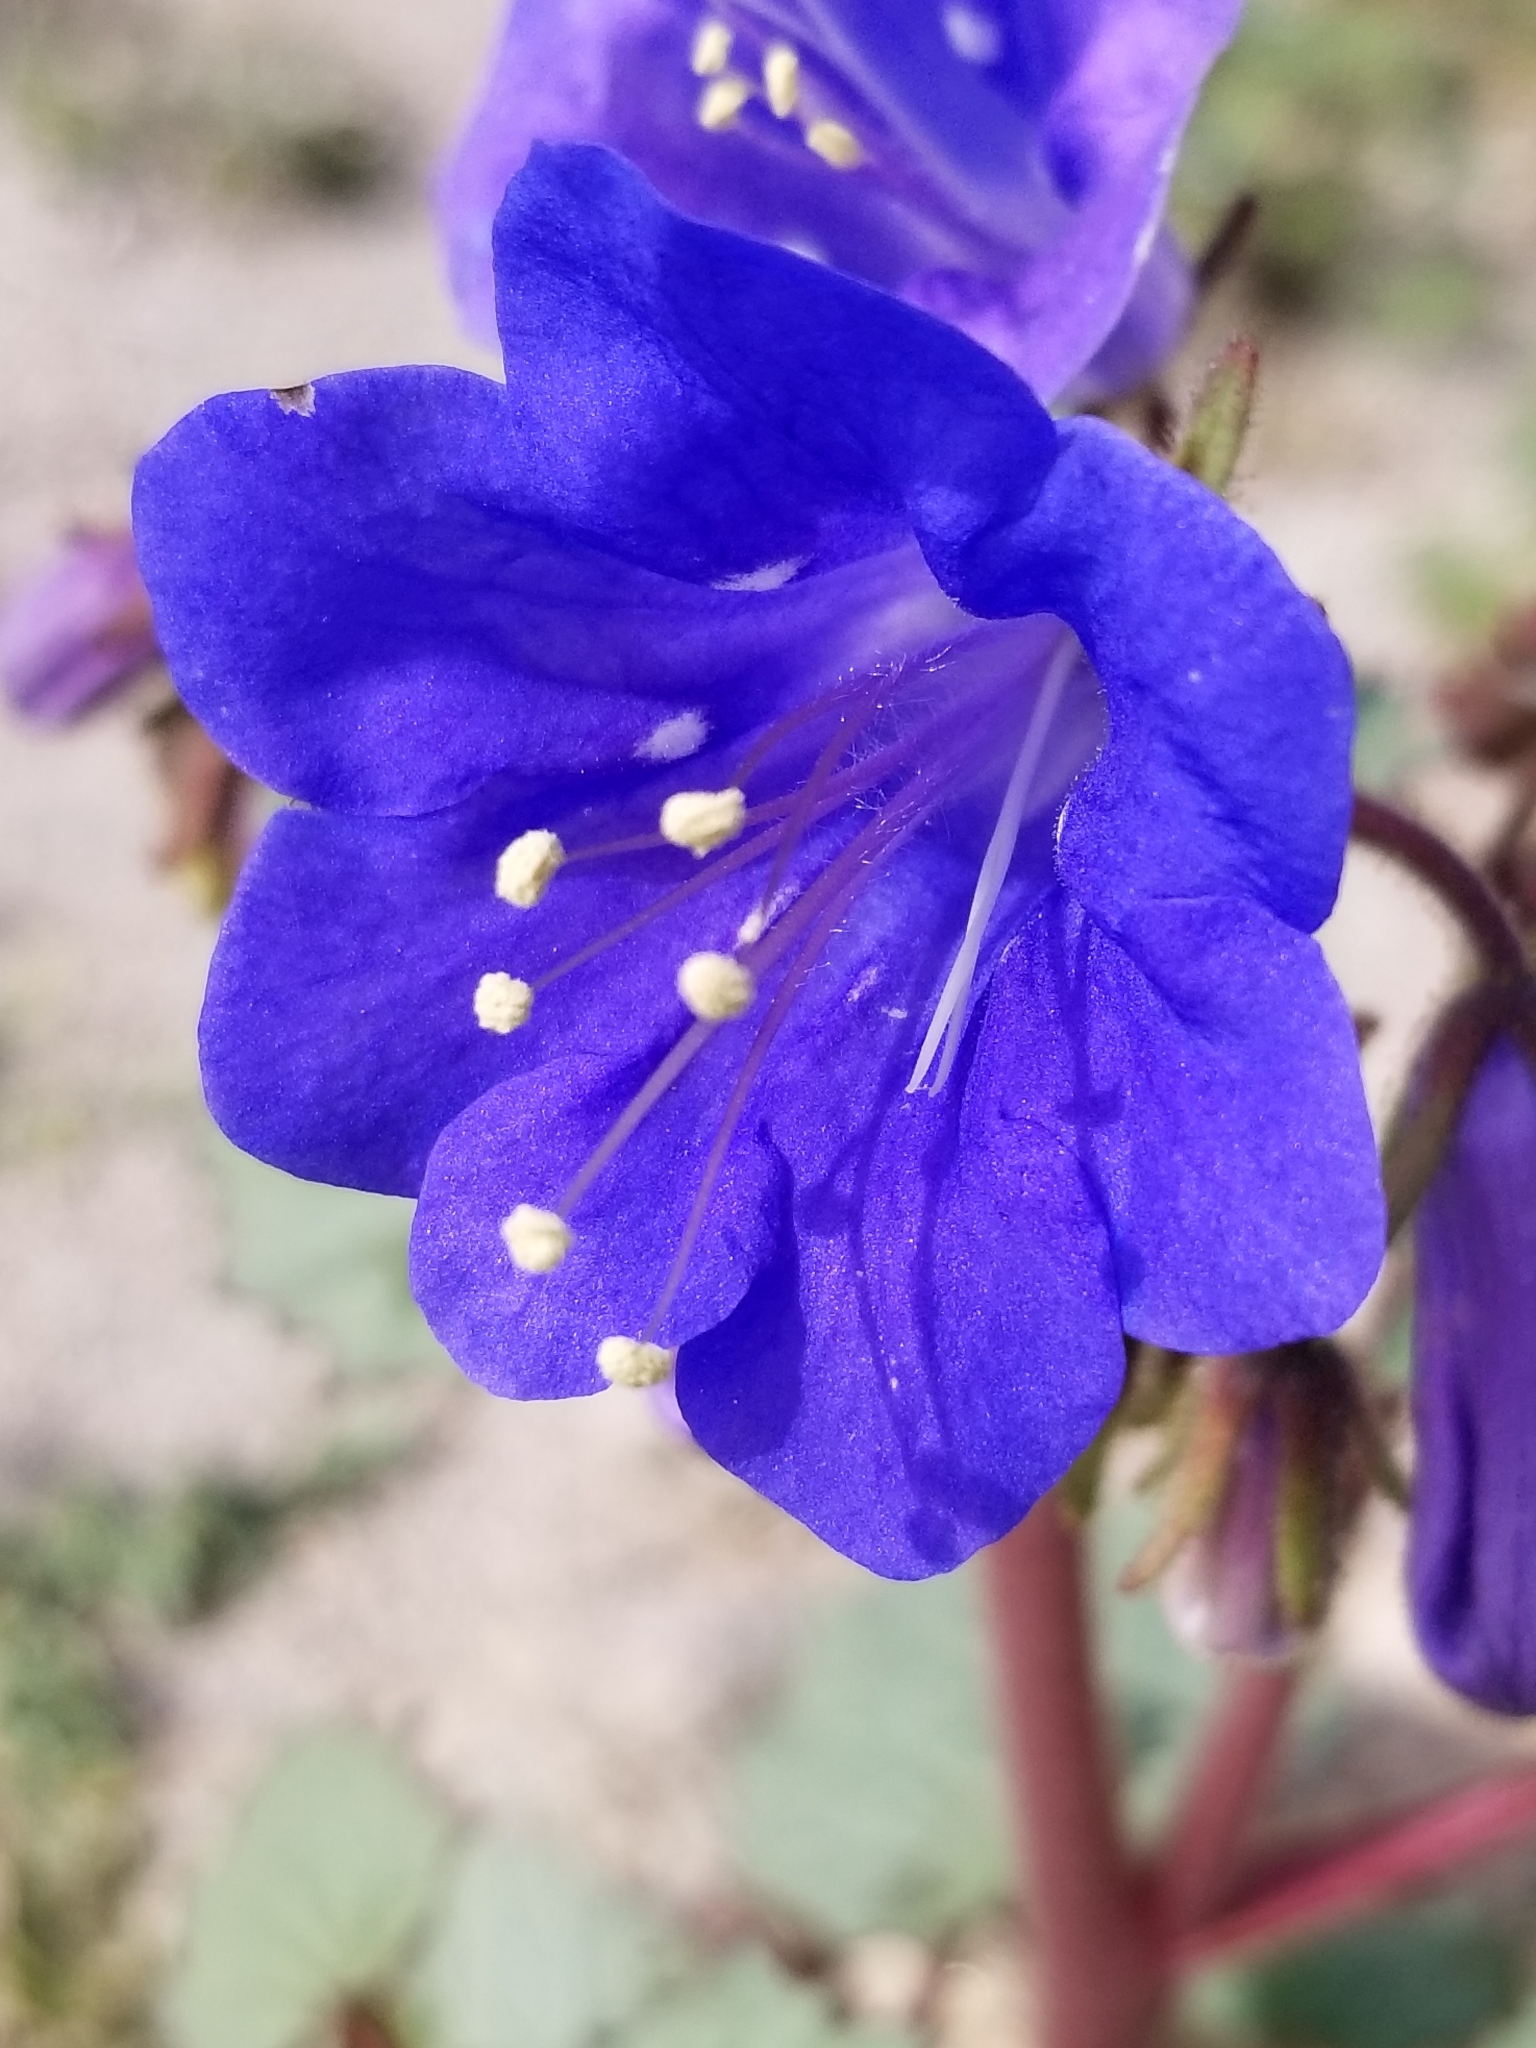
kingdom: Plantae
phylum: Tracheophyta
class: Magnoliopsida
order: Boraginales
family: Hydrophyllaceae
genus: Phacelia
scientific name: Phacelia campanularia
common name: California bluebell
